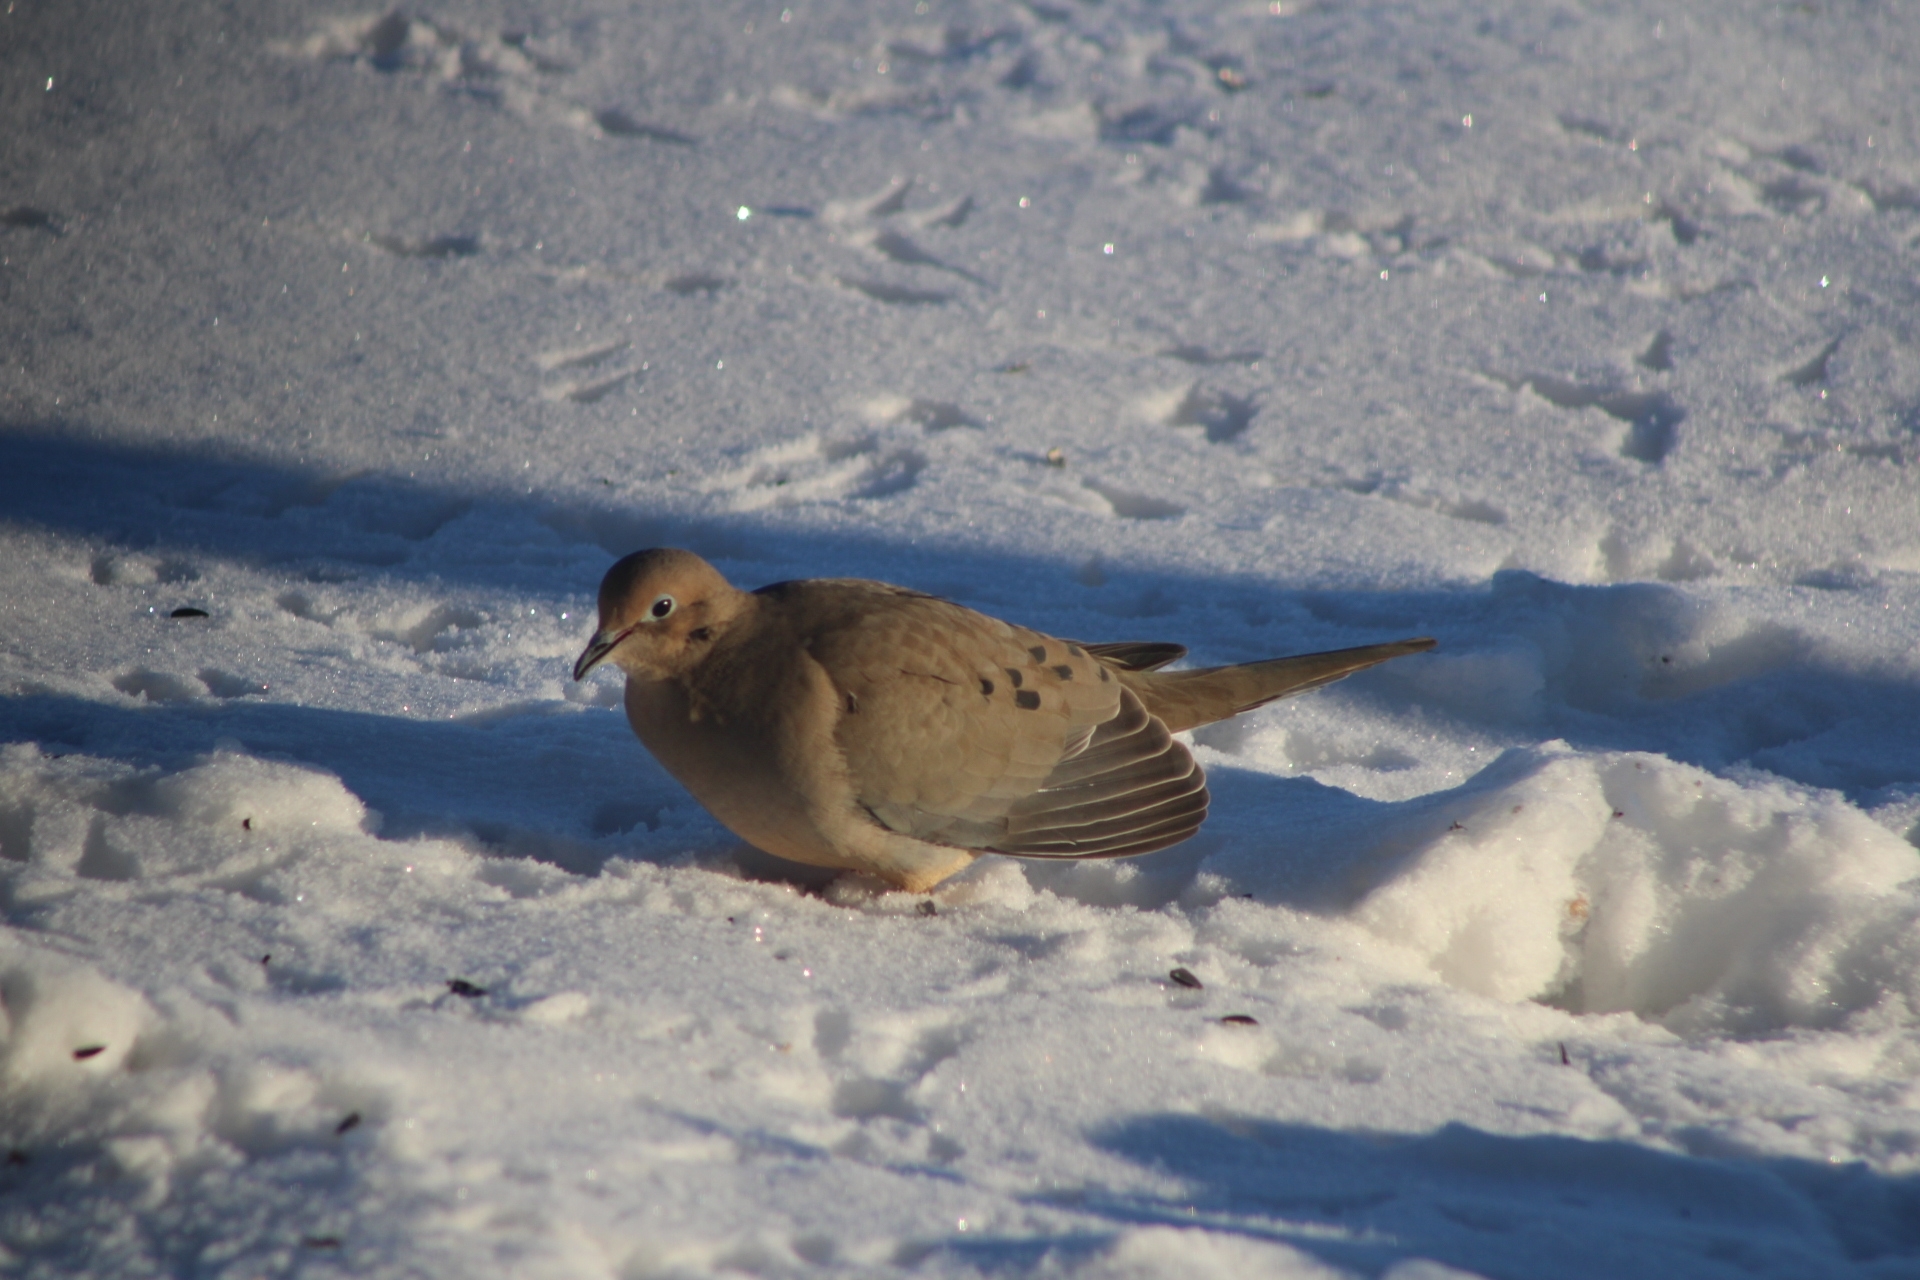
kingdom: Animalia
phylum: Chordata
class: Aves
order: Columbiformes
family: Columbidae
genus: Zenaida
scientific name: Zenaida macroura
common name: Mourning dove
